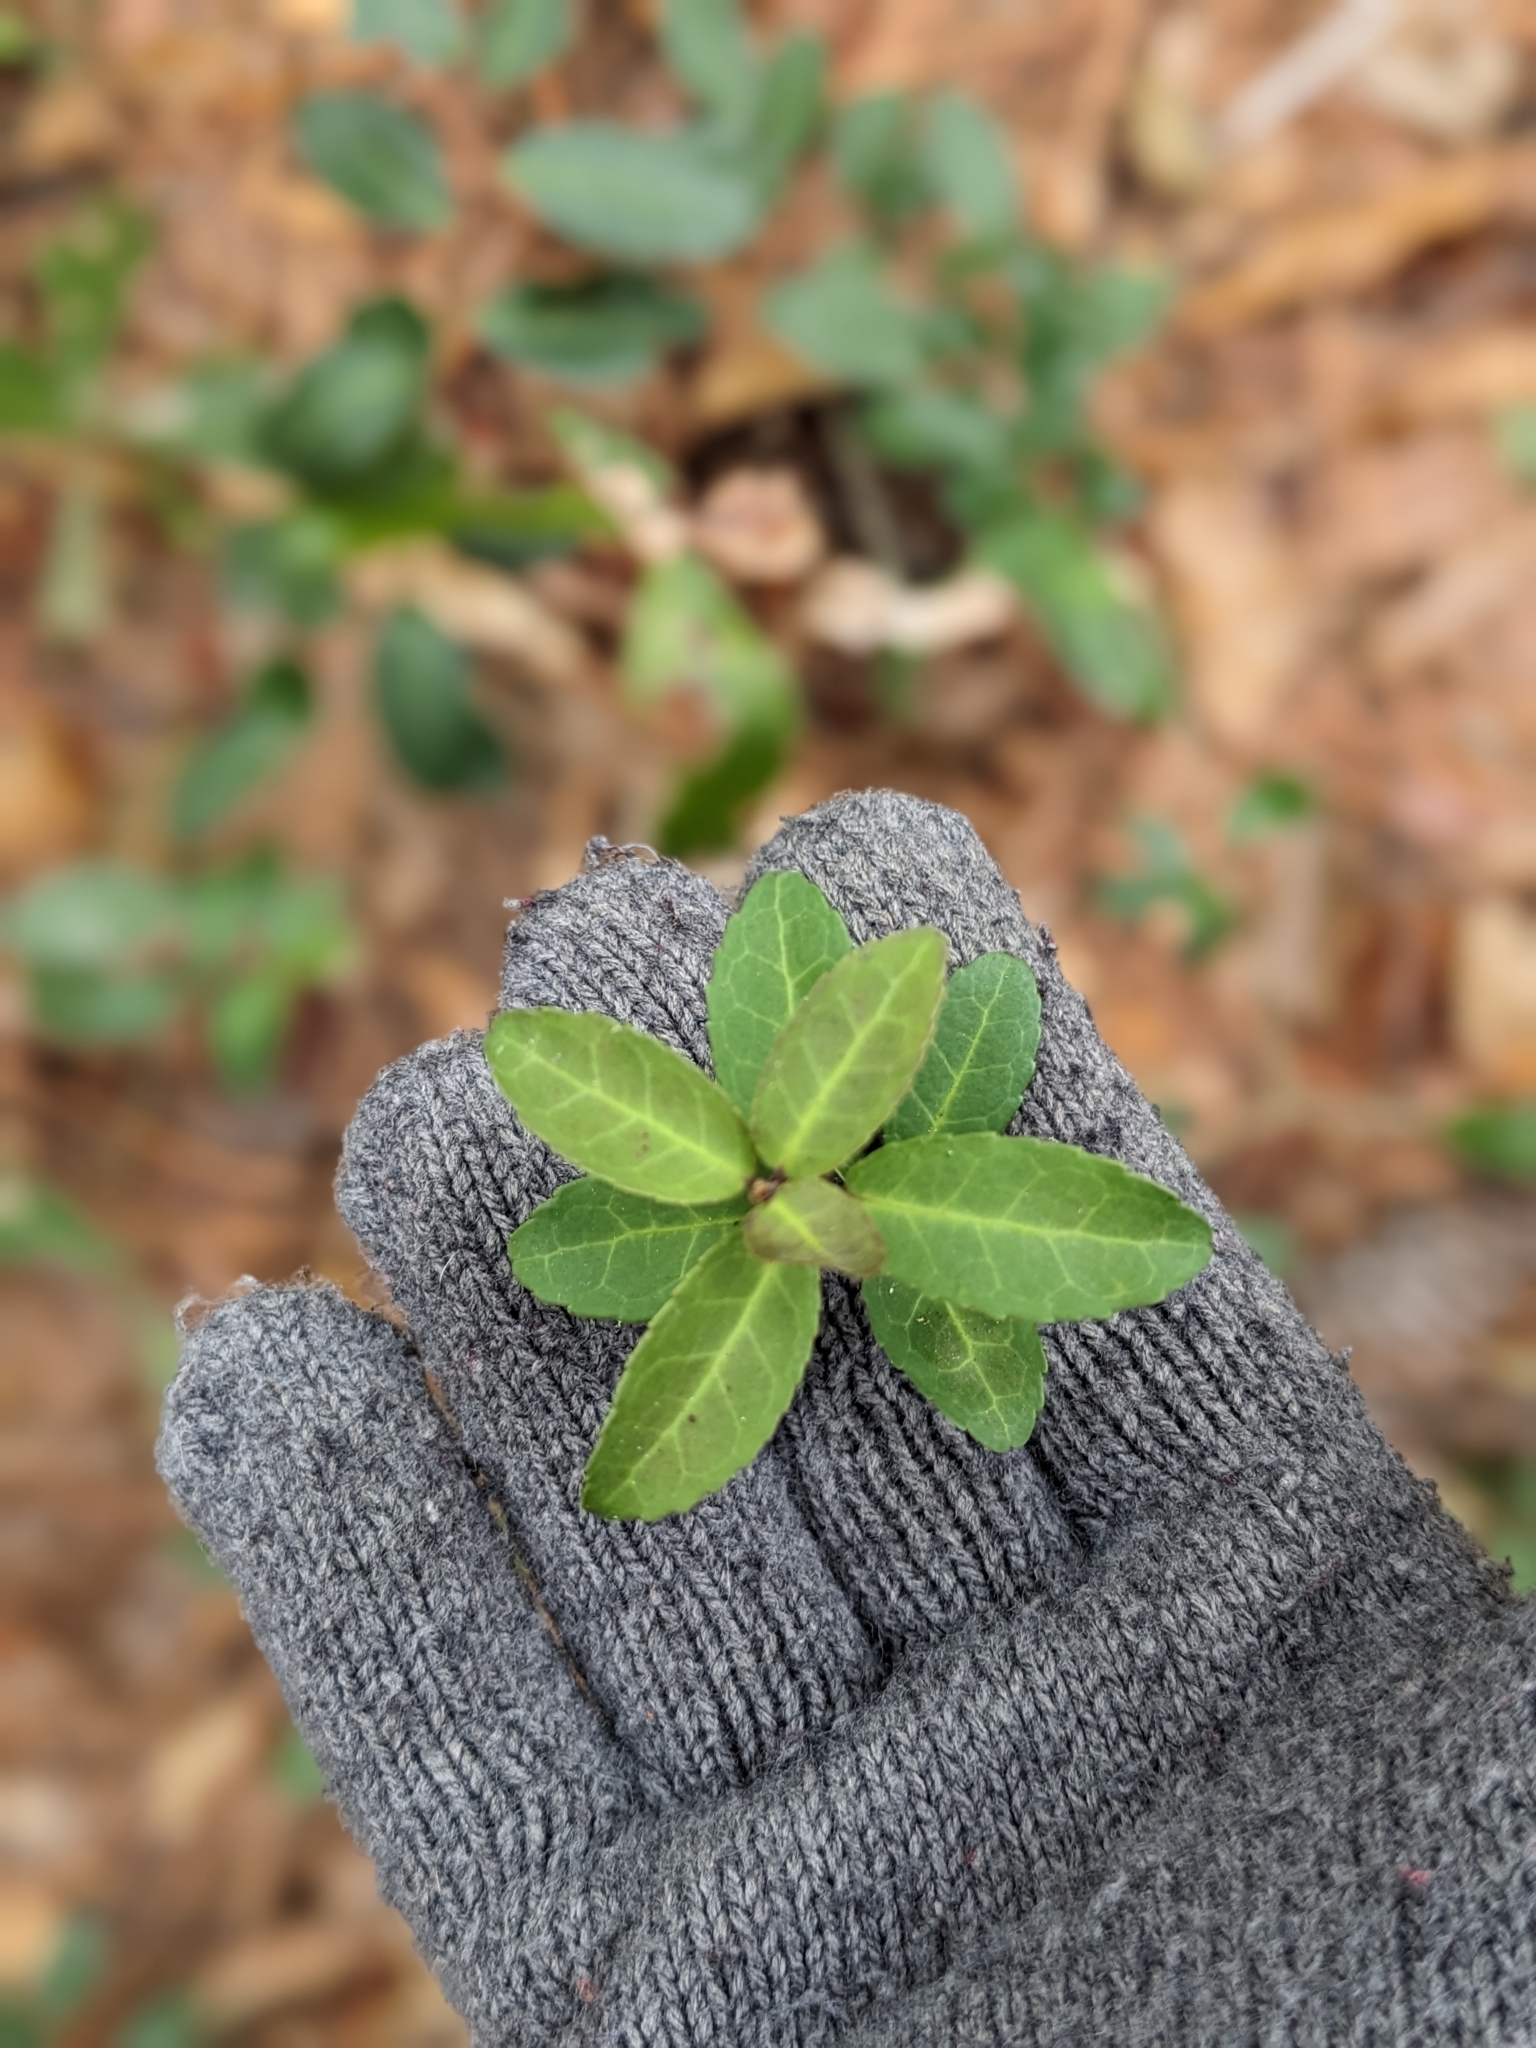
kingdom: Plantae
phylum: Tracheophyta
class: Magnoliopsida
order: Aquifoliales
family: Aquifoliaceae
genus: Ilex
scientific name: Ilex vomitoria
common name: Yaupon holly
